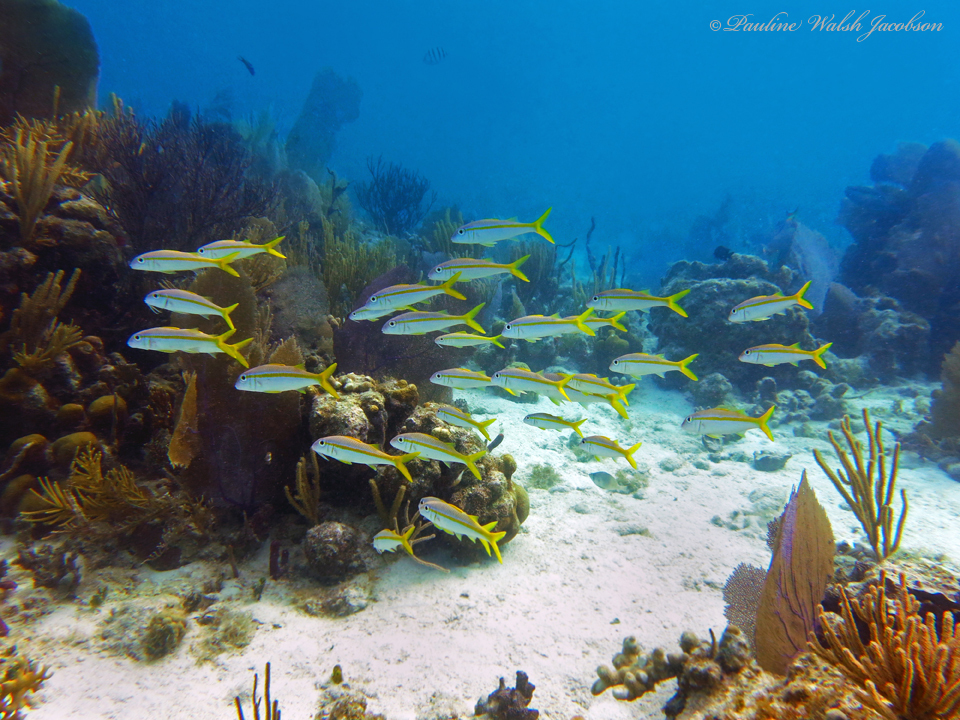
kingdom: Animalia
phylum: Chordata
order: Perciformes
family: Mullidae
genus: Mulloidichthys
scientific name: Mulloidichthys martinicus
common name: Yellow goatfish
